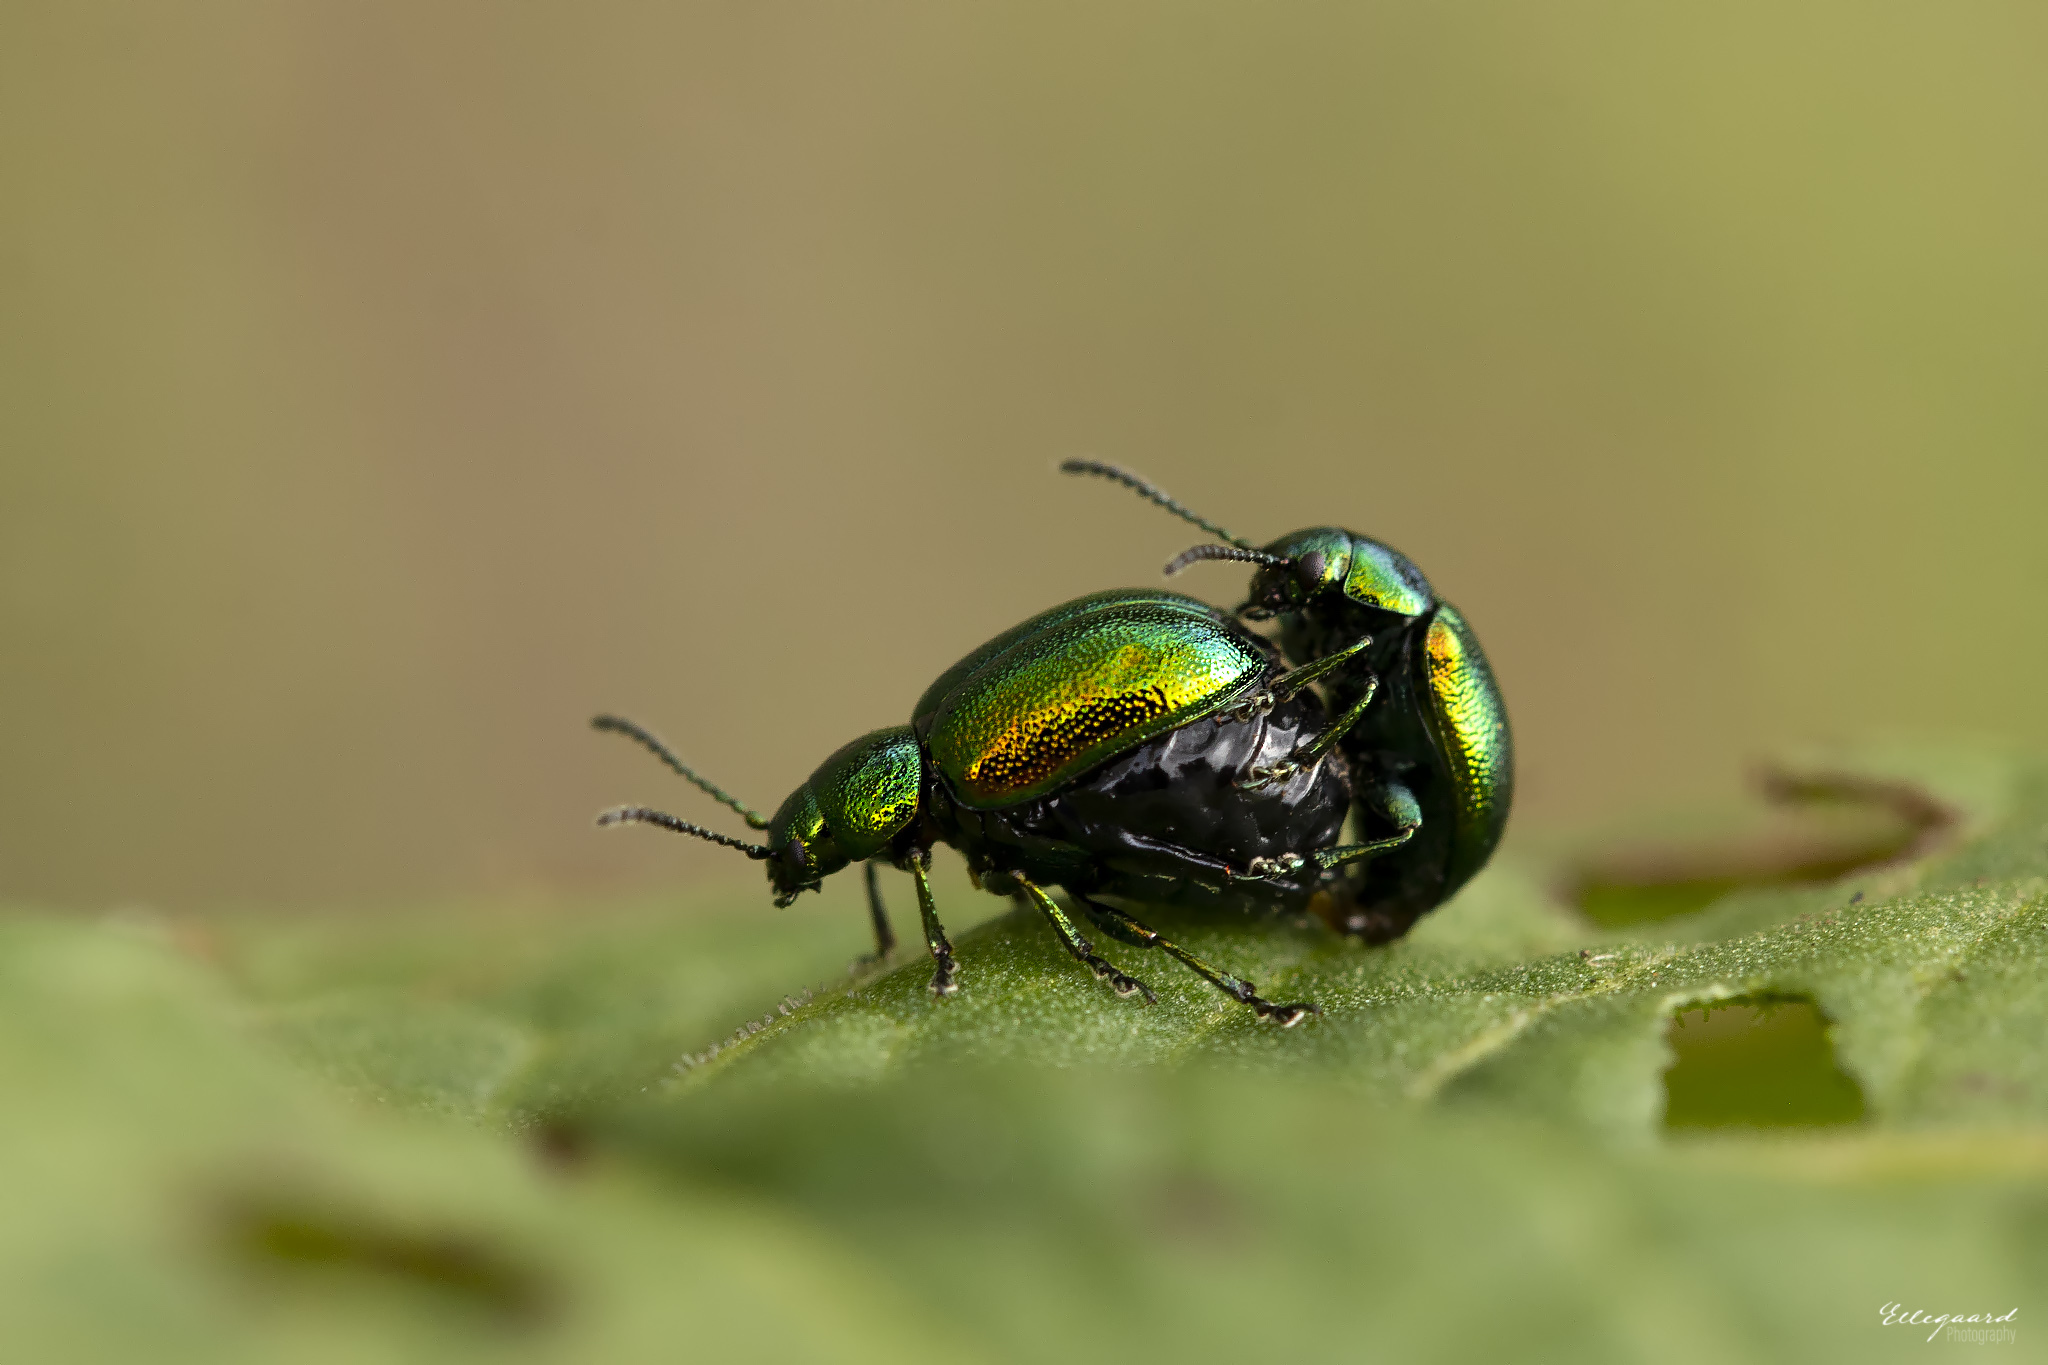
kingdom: Animalia
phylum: Arthropoda
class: Insecta
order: Coleoptera
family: Chrysomelidae
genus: Gastrophysa
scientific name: Gastrophysa viridula
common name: Green dock beetle
